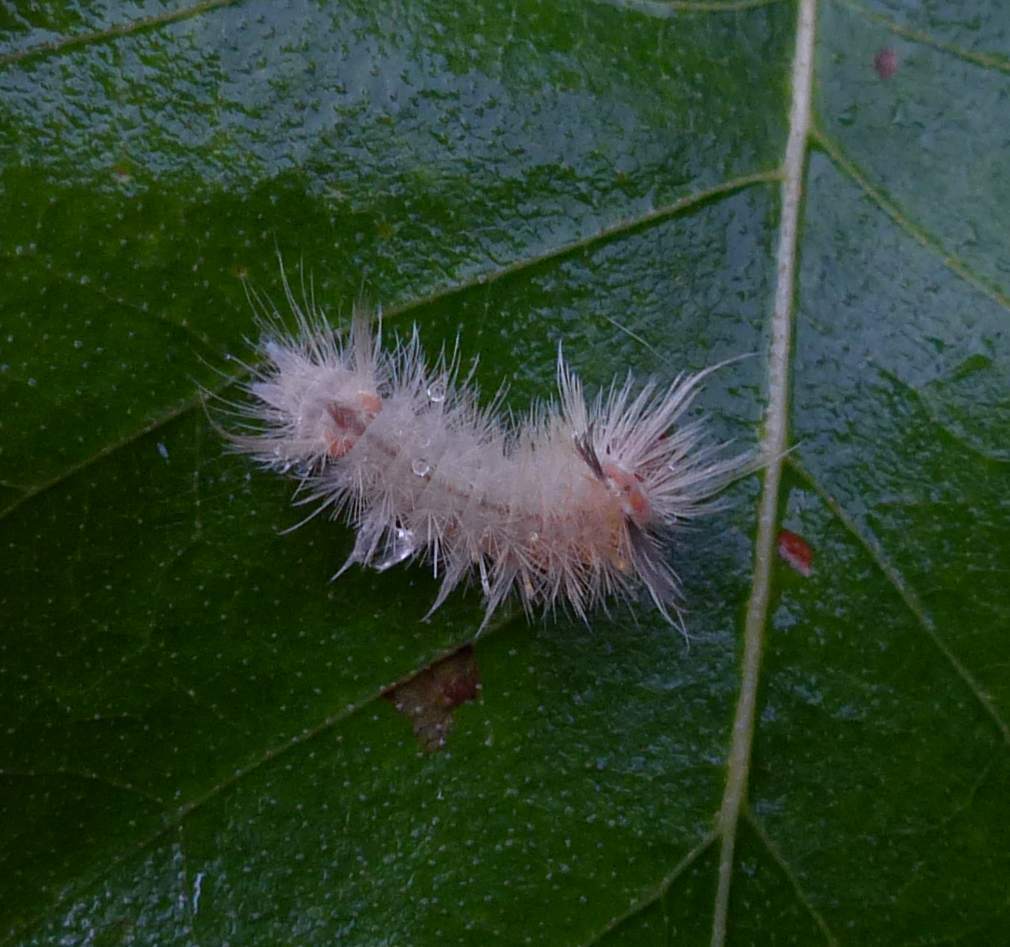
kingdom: Animalia
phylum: Arthropoda
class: Insecta
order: Lepidoptera
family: Erebidae
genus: Halysidota
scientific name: Halysidota tessellaris
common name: Banded tussock moth
